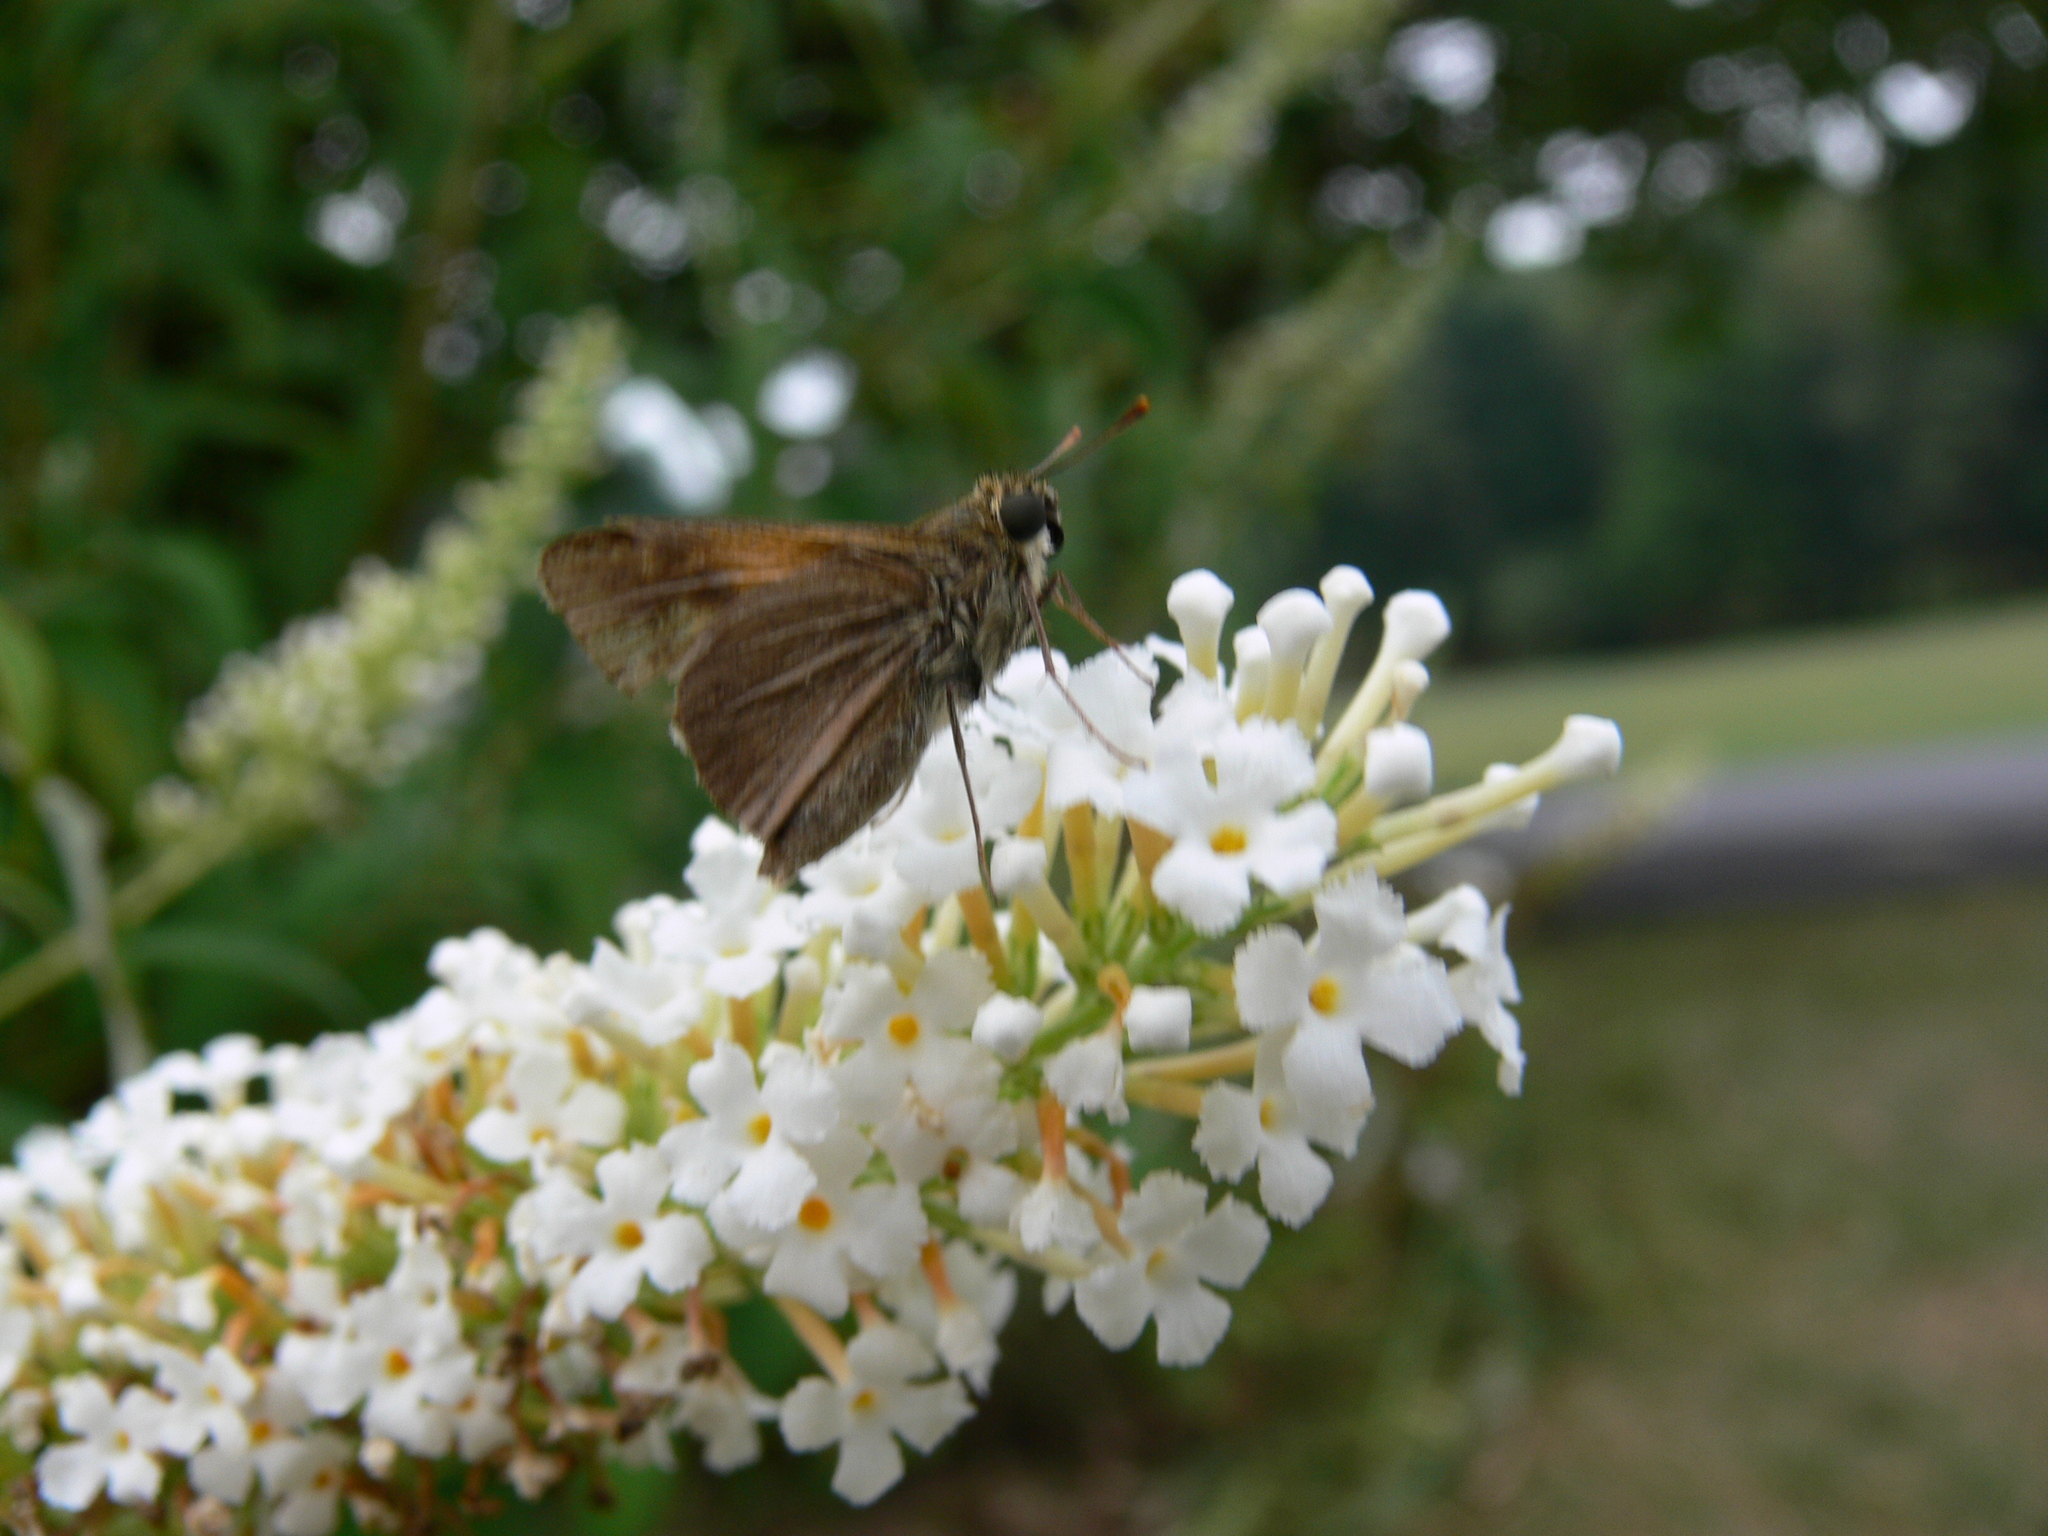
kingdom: Animalia
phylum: Arthropoda
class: Insecta
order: Lepidoptera
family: Hesperiidae
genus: Polites
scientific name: Polites themistocles
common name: Tawny-edged skipper
